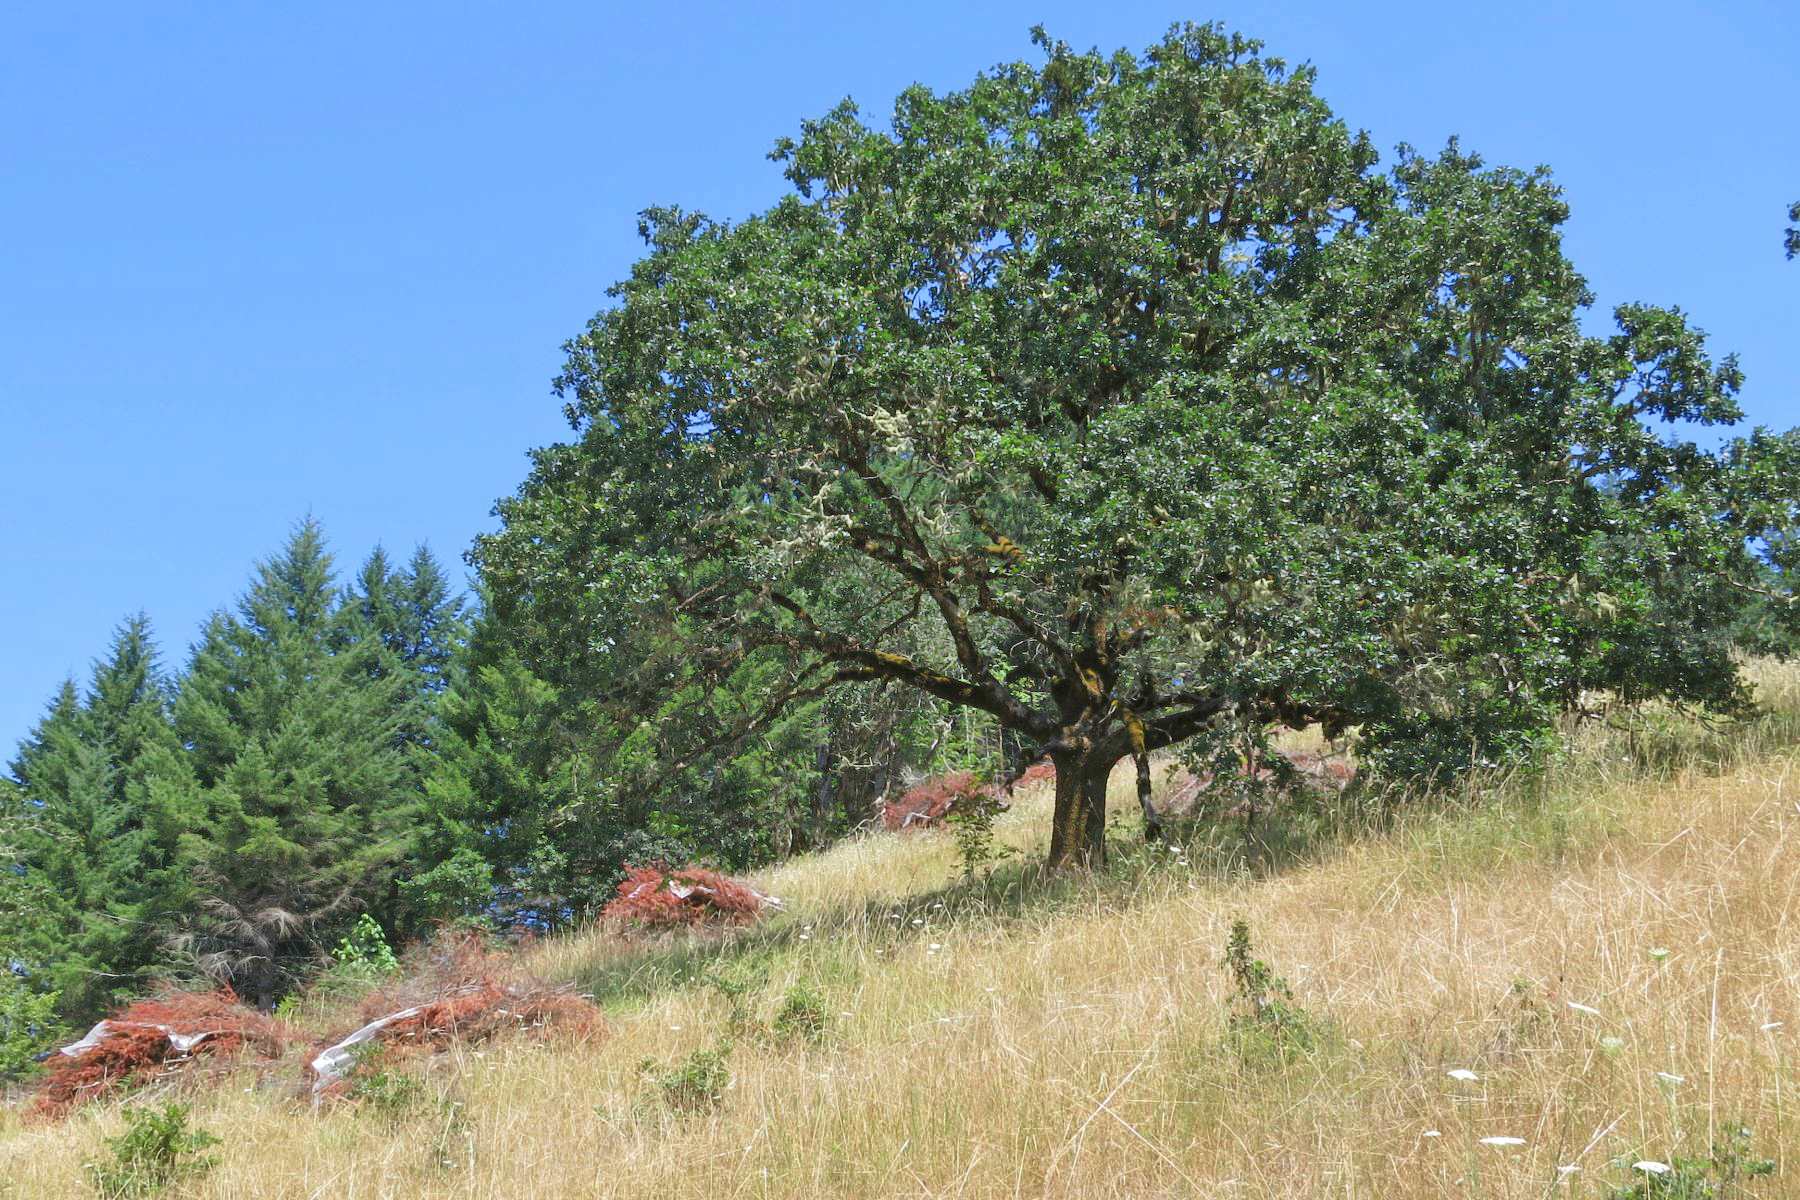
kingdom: Plantae
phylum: Tracheophyta
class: Magnoliopsida
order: Fagales
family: Fagaceae
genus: Quercus
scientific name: Quercus garryana
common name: Garry oak
